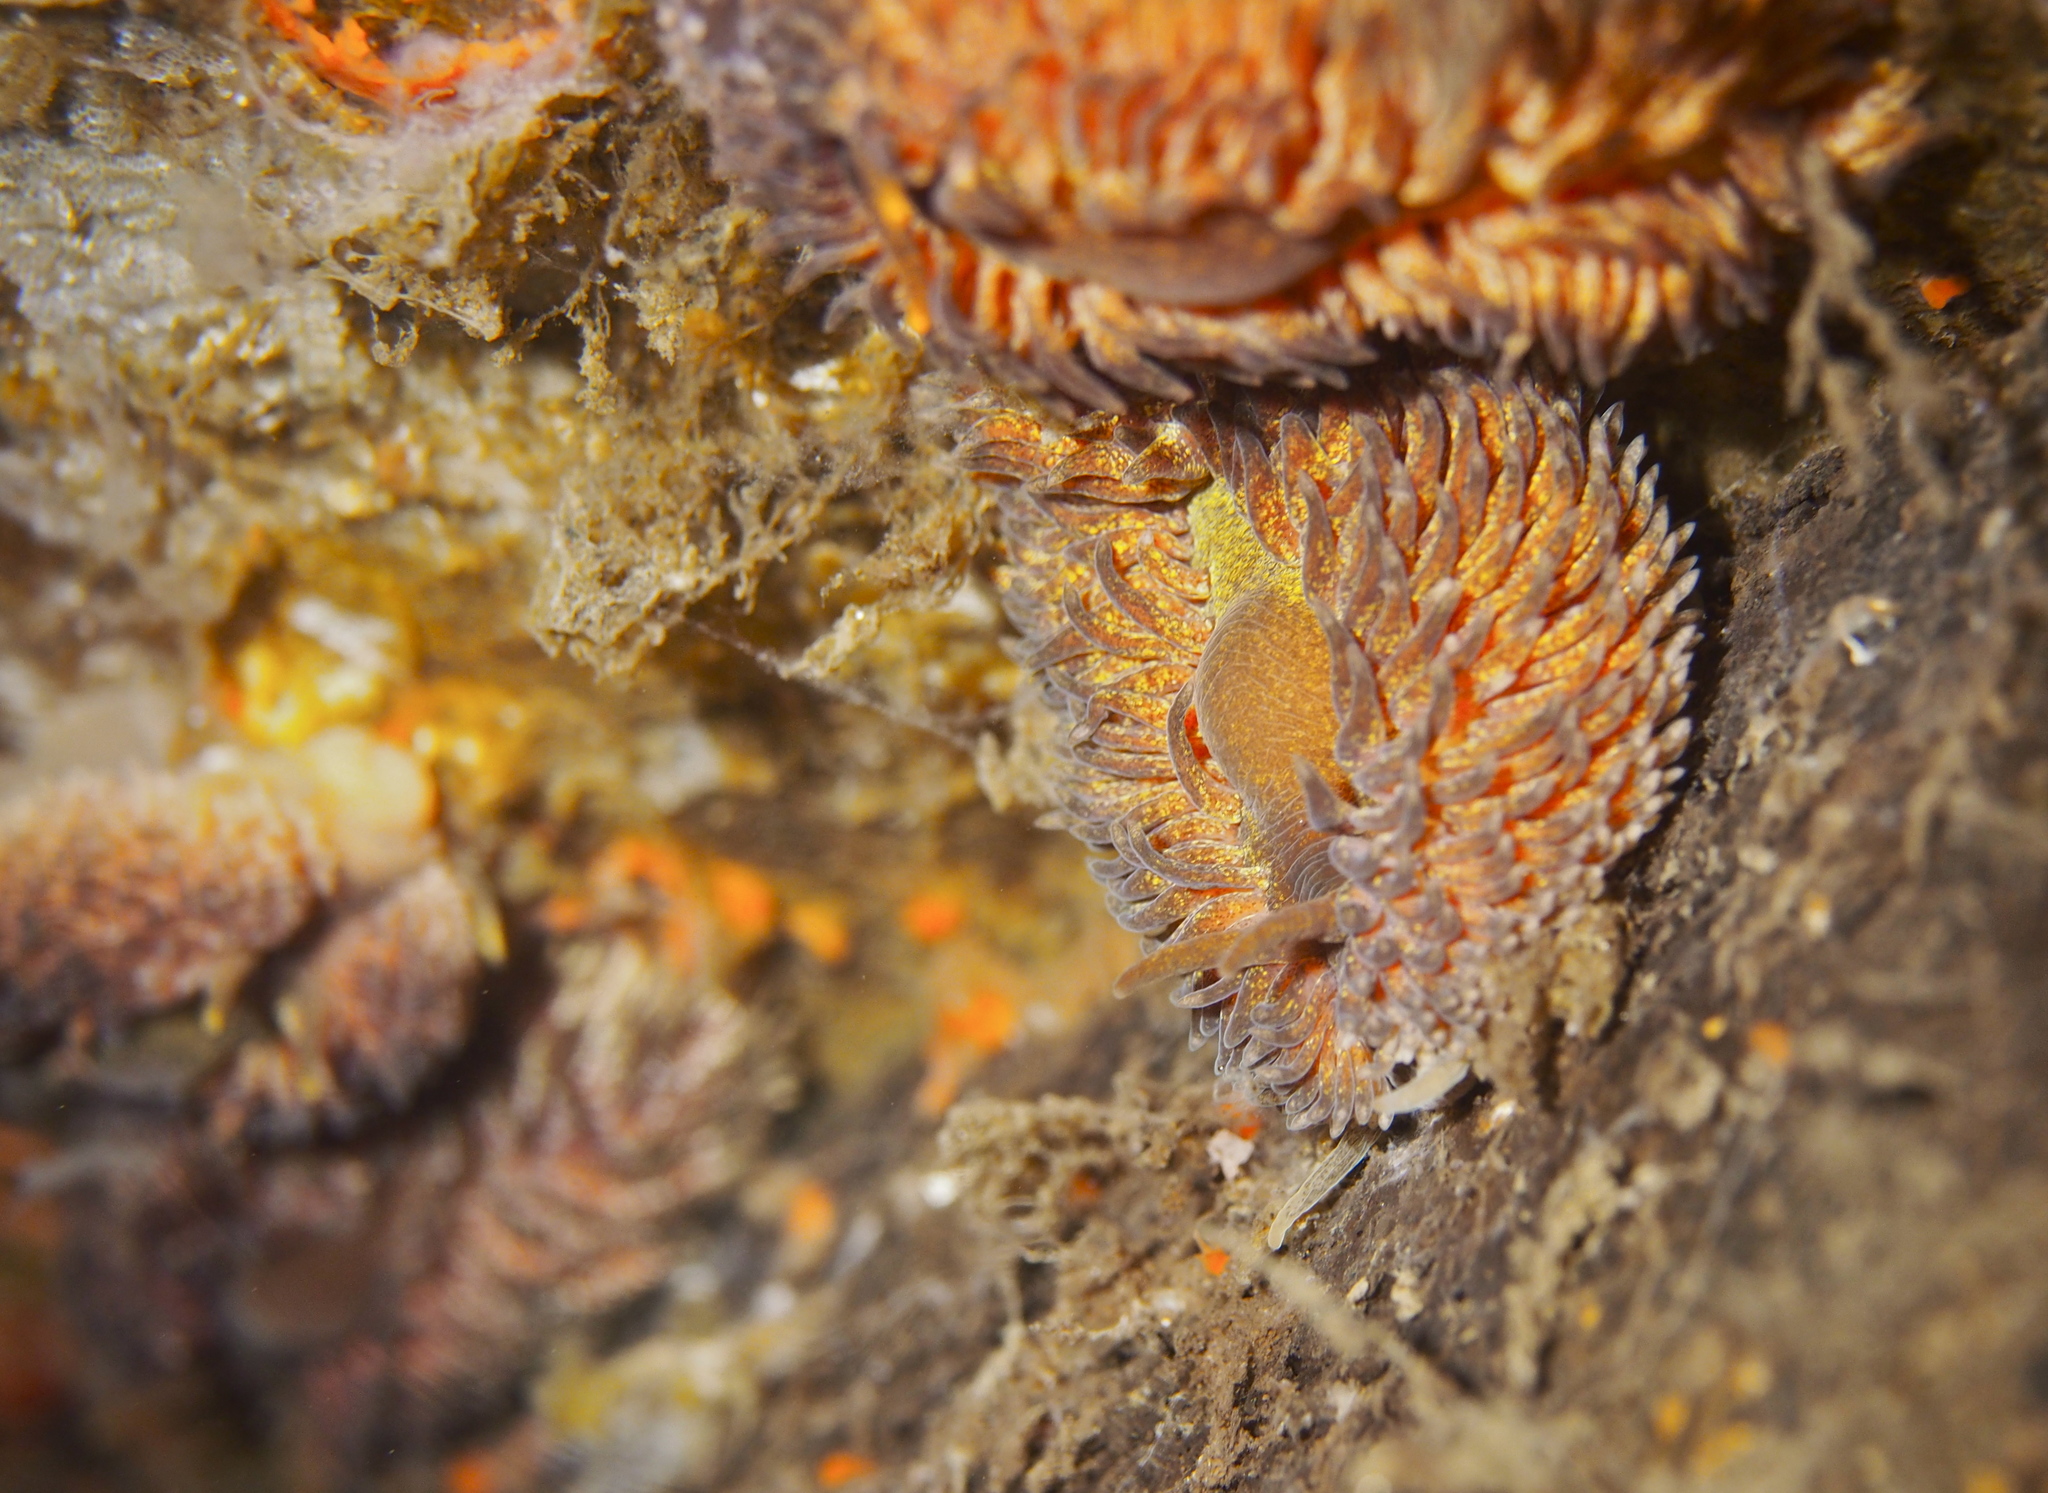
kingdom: Animalia
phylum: Mollusca
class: Gastropoda
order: Nudibranchia
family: Aeolidiidae
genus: Aeolidia
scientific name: Aeolidia papillosa
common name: Common grey sea slug
